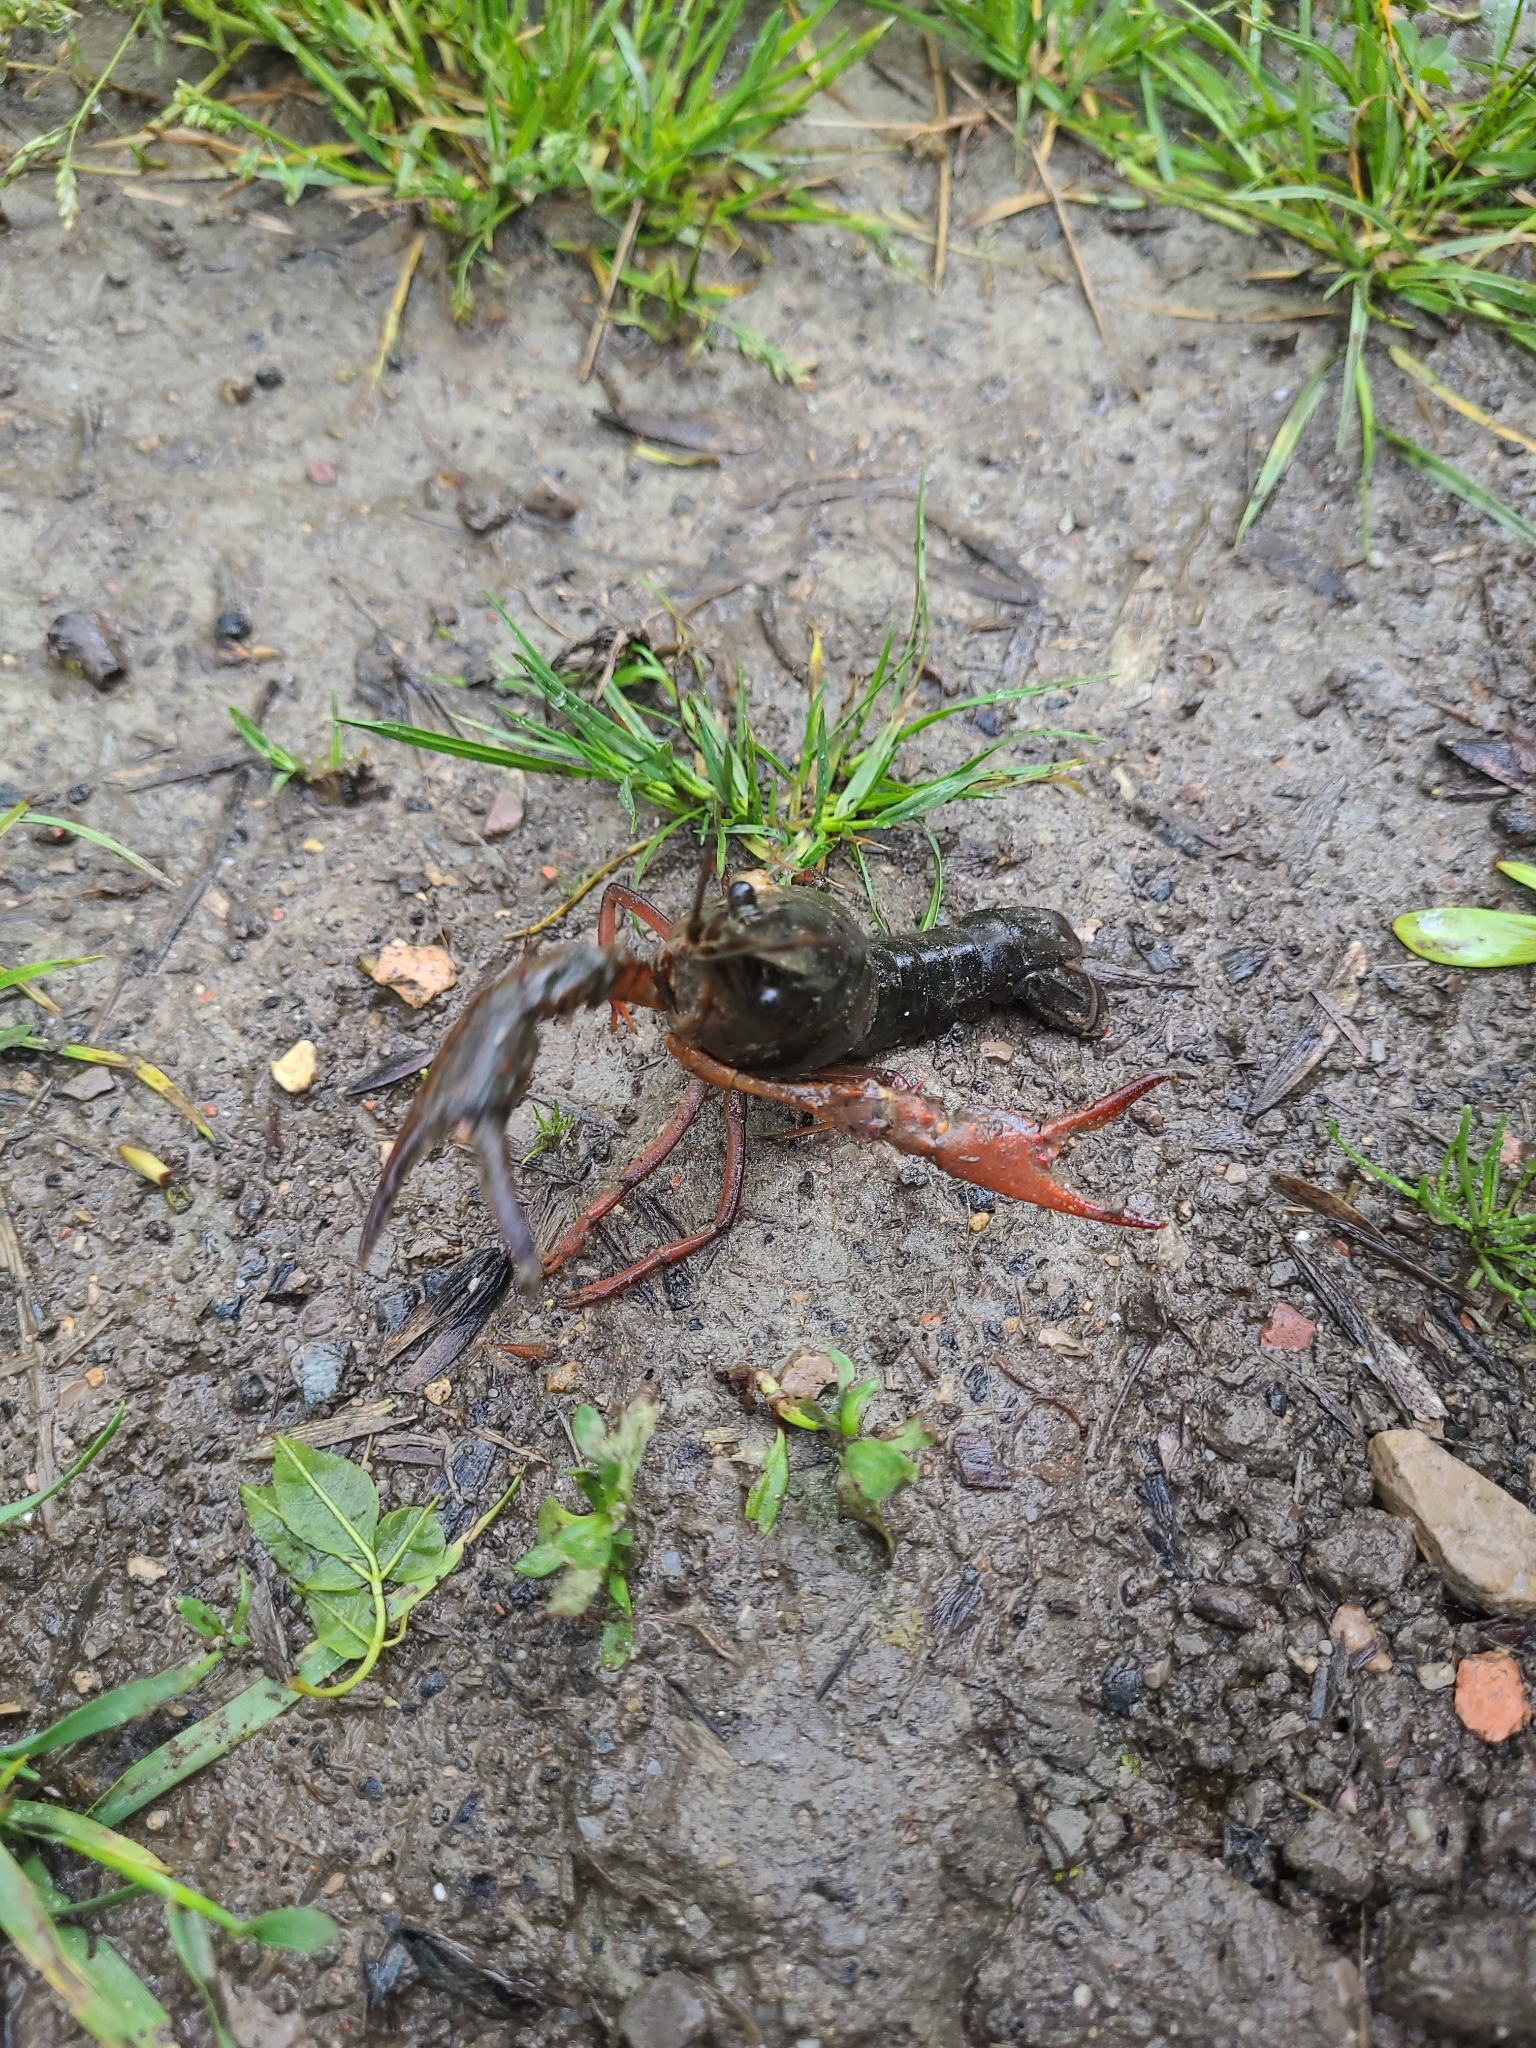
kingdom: Animalia
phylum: Arthropoda
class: Malacostraca
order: Decapoda
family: Cambaridae
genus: Procambarus
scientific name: Procambarus clarkii
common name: Red swamp crayfish
